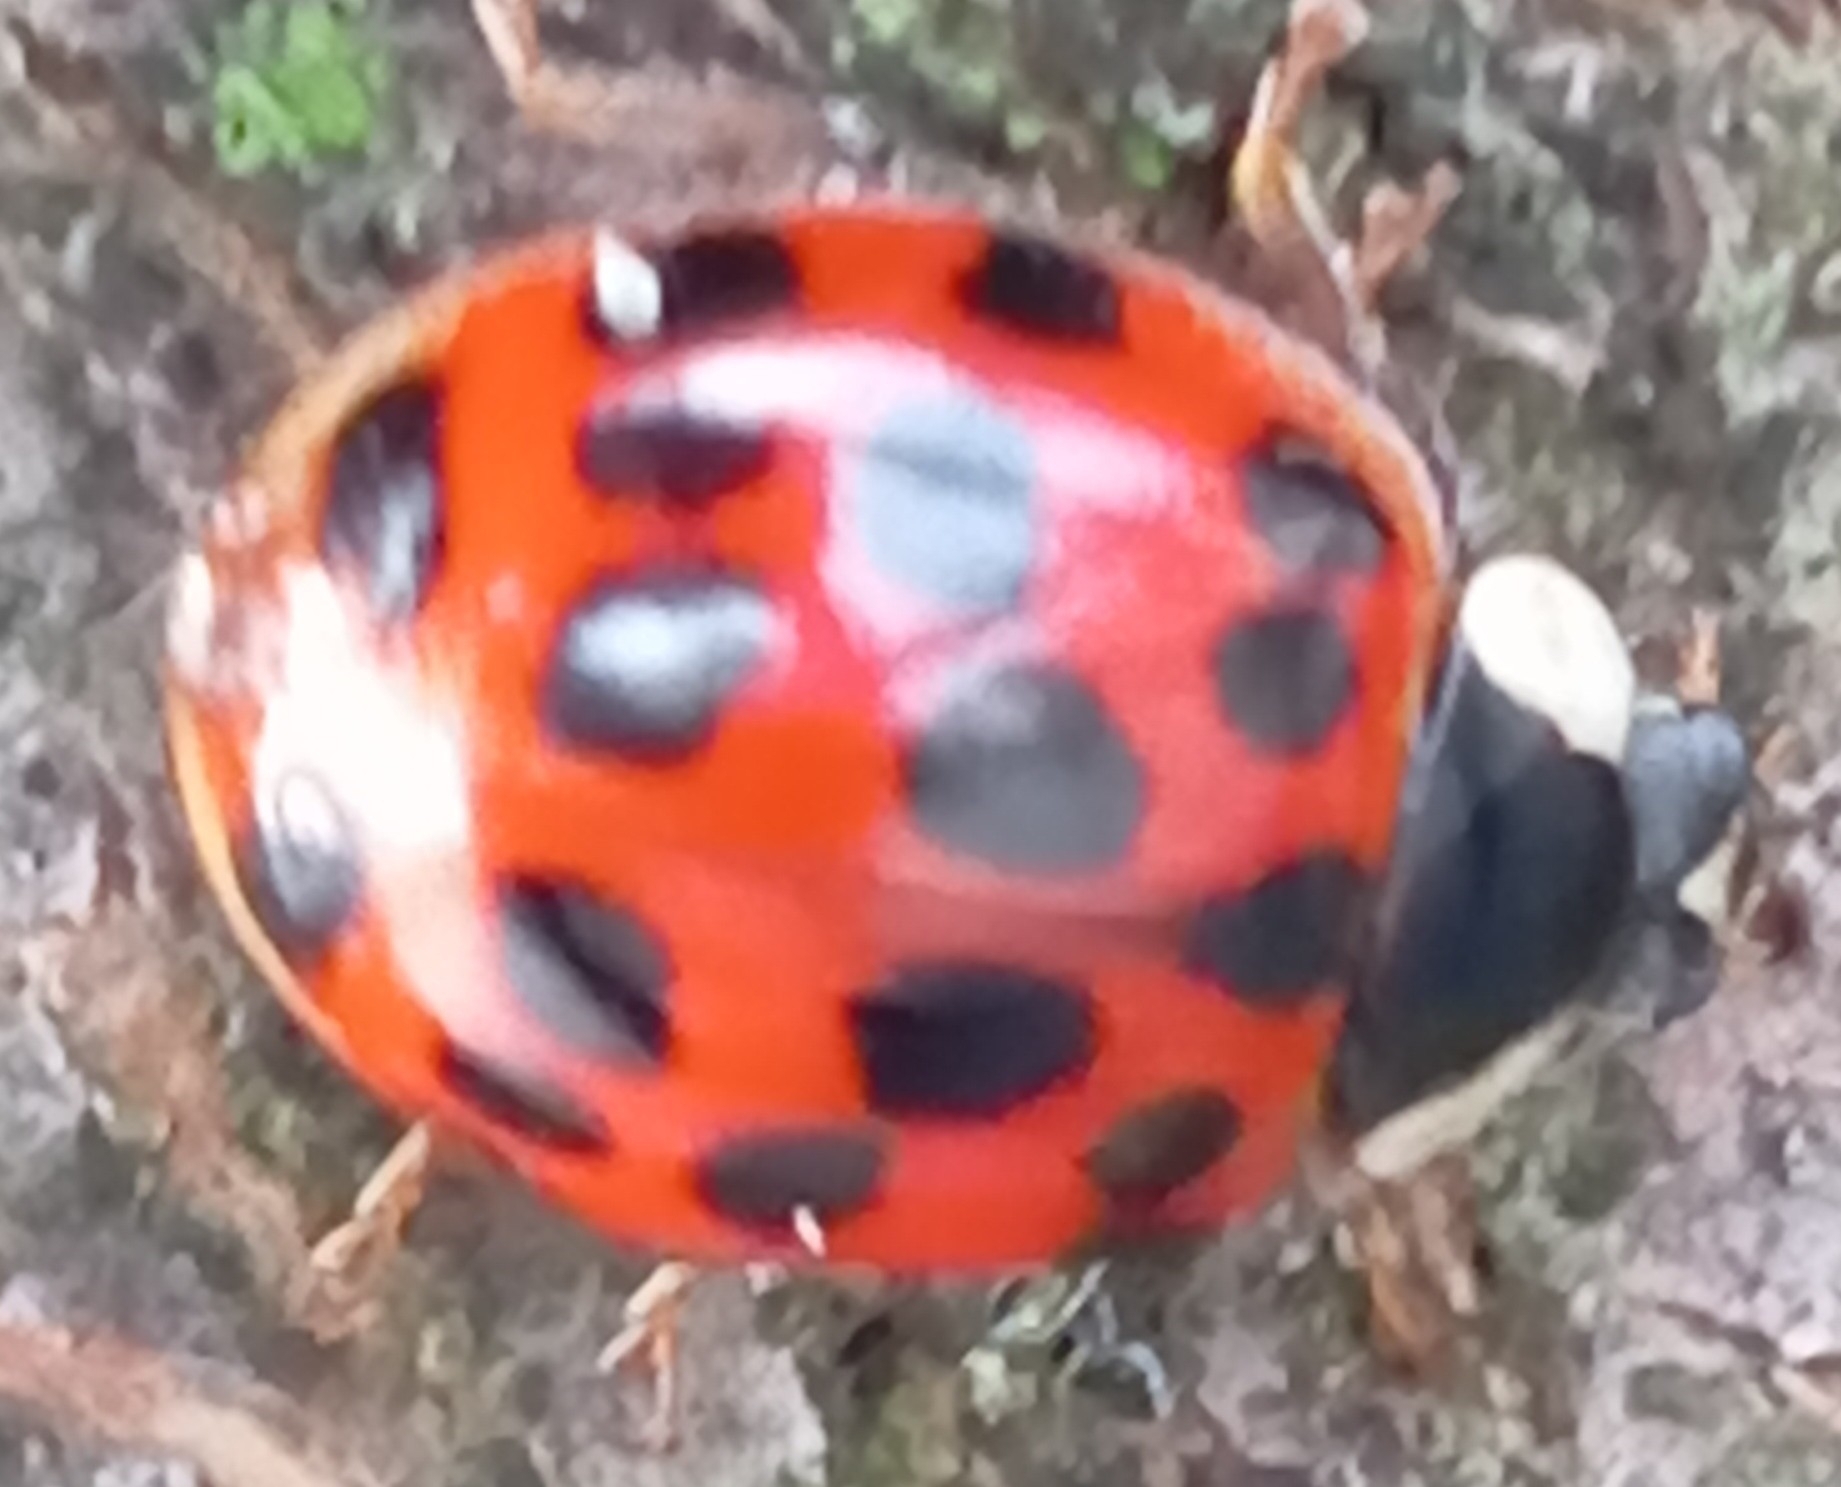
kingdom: Animalia
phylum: Arthropoda
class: Insecta
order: Coleoptera
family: Coccinellidae
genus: Harmonia
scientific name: Harmonia axyridis
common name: Harlequin ladybird
